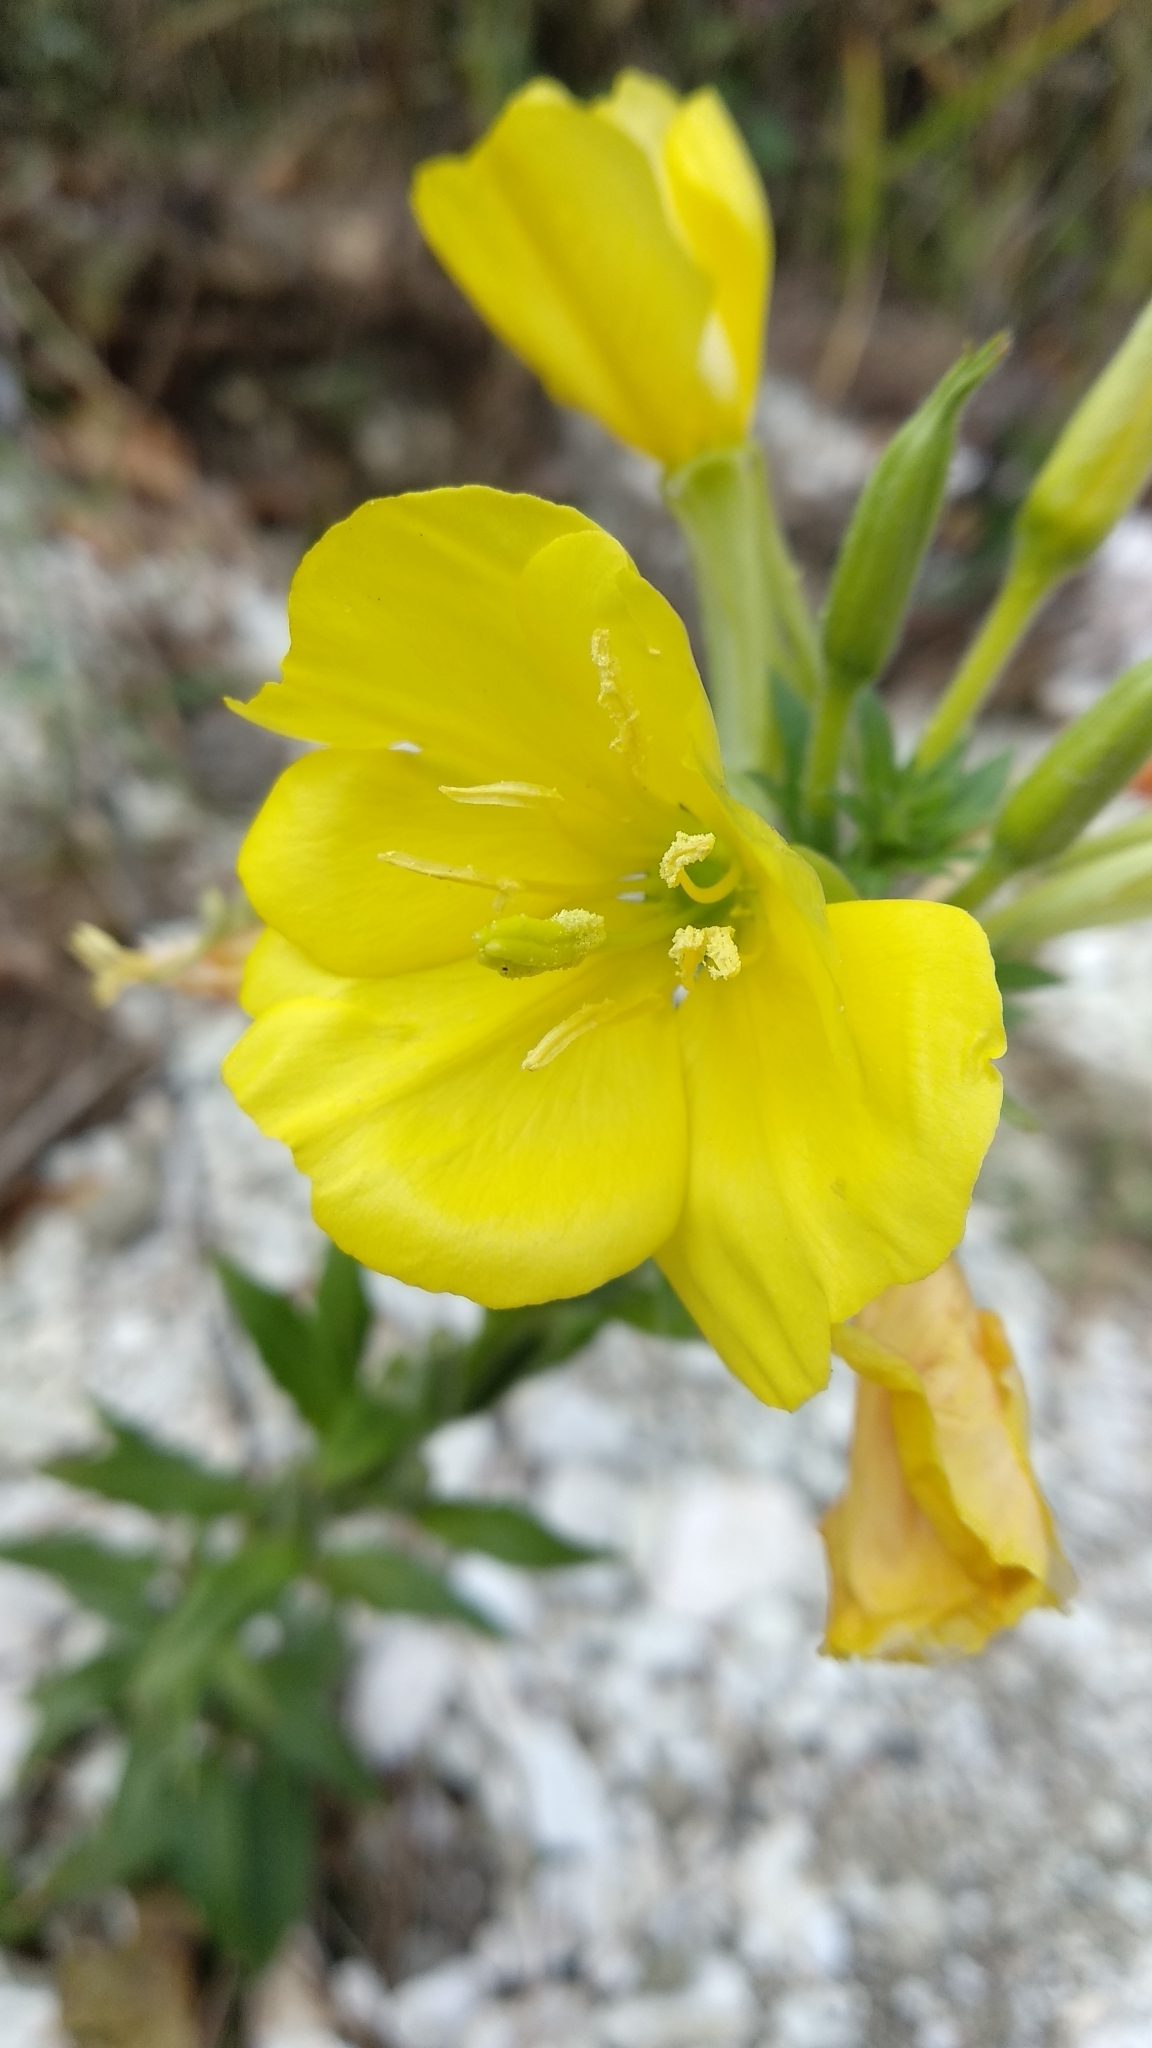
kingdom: Plantae
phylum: Tracheophyta
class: Magnoliopsida
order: Myrtales
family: Onagraceae
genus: Oenothera
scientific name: Oenothera biennis
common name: Common evening-primrose
